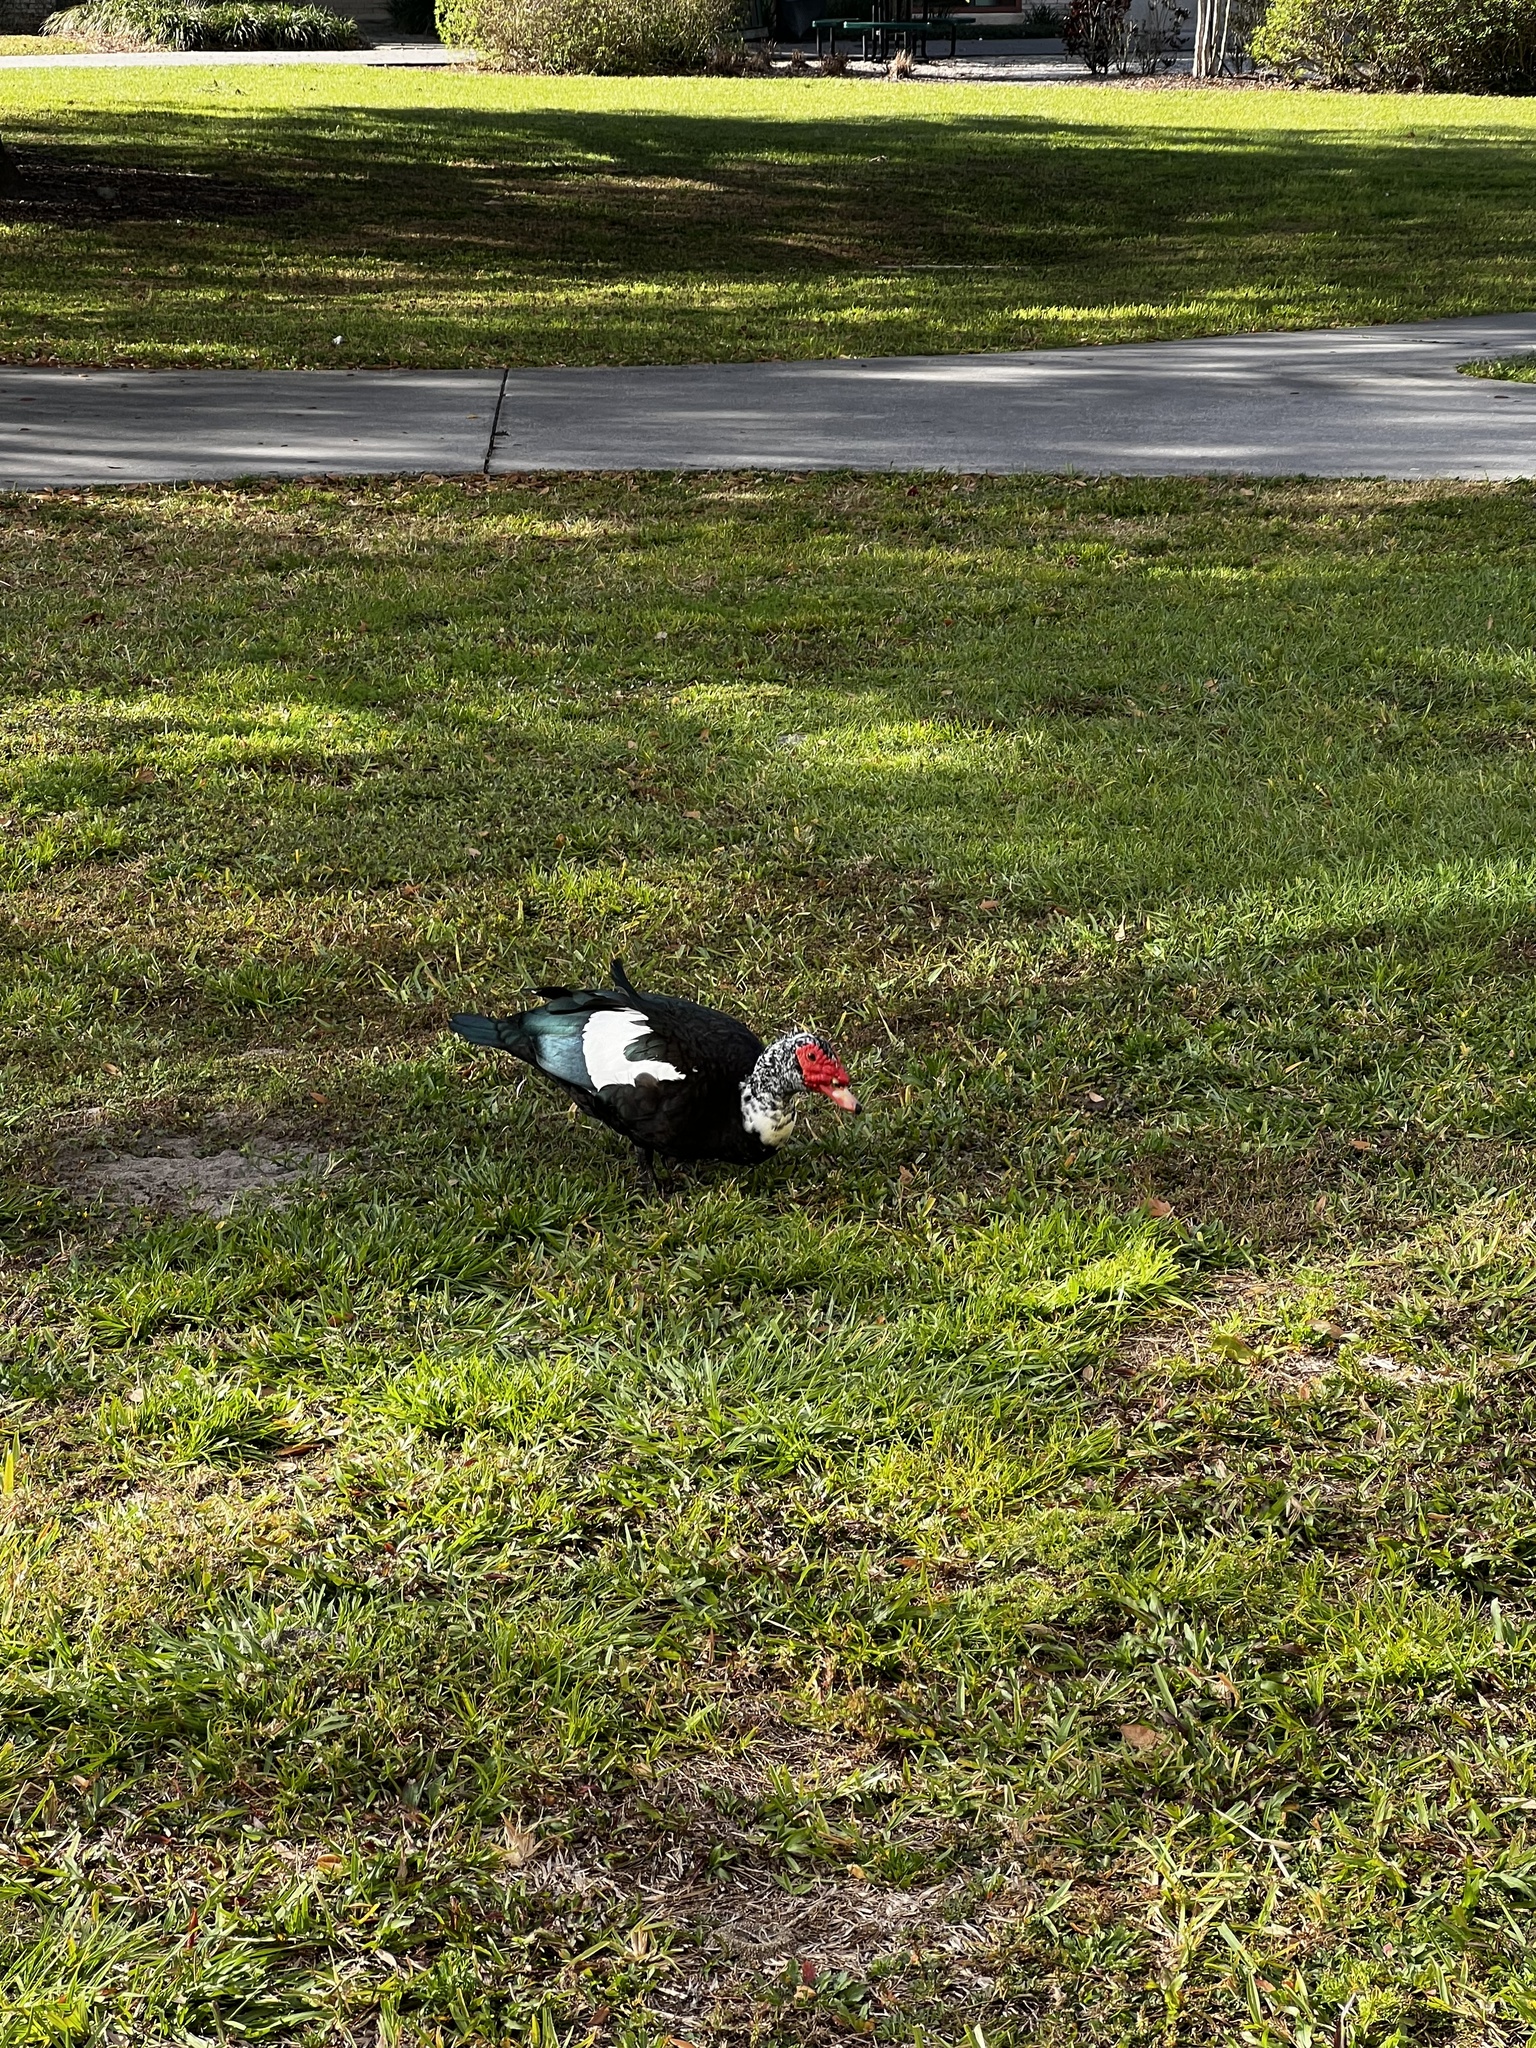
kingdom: Animalia
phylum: Chordata
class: Aves
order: Anseriformes
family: Anatidae
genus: Cairina
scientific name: Cairina moschata
